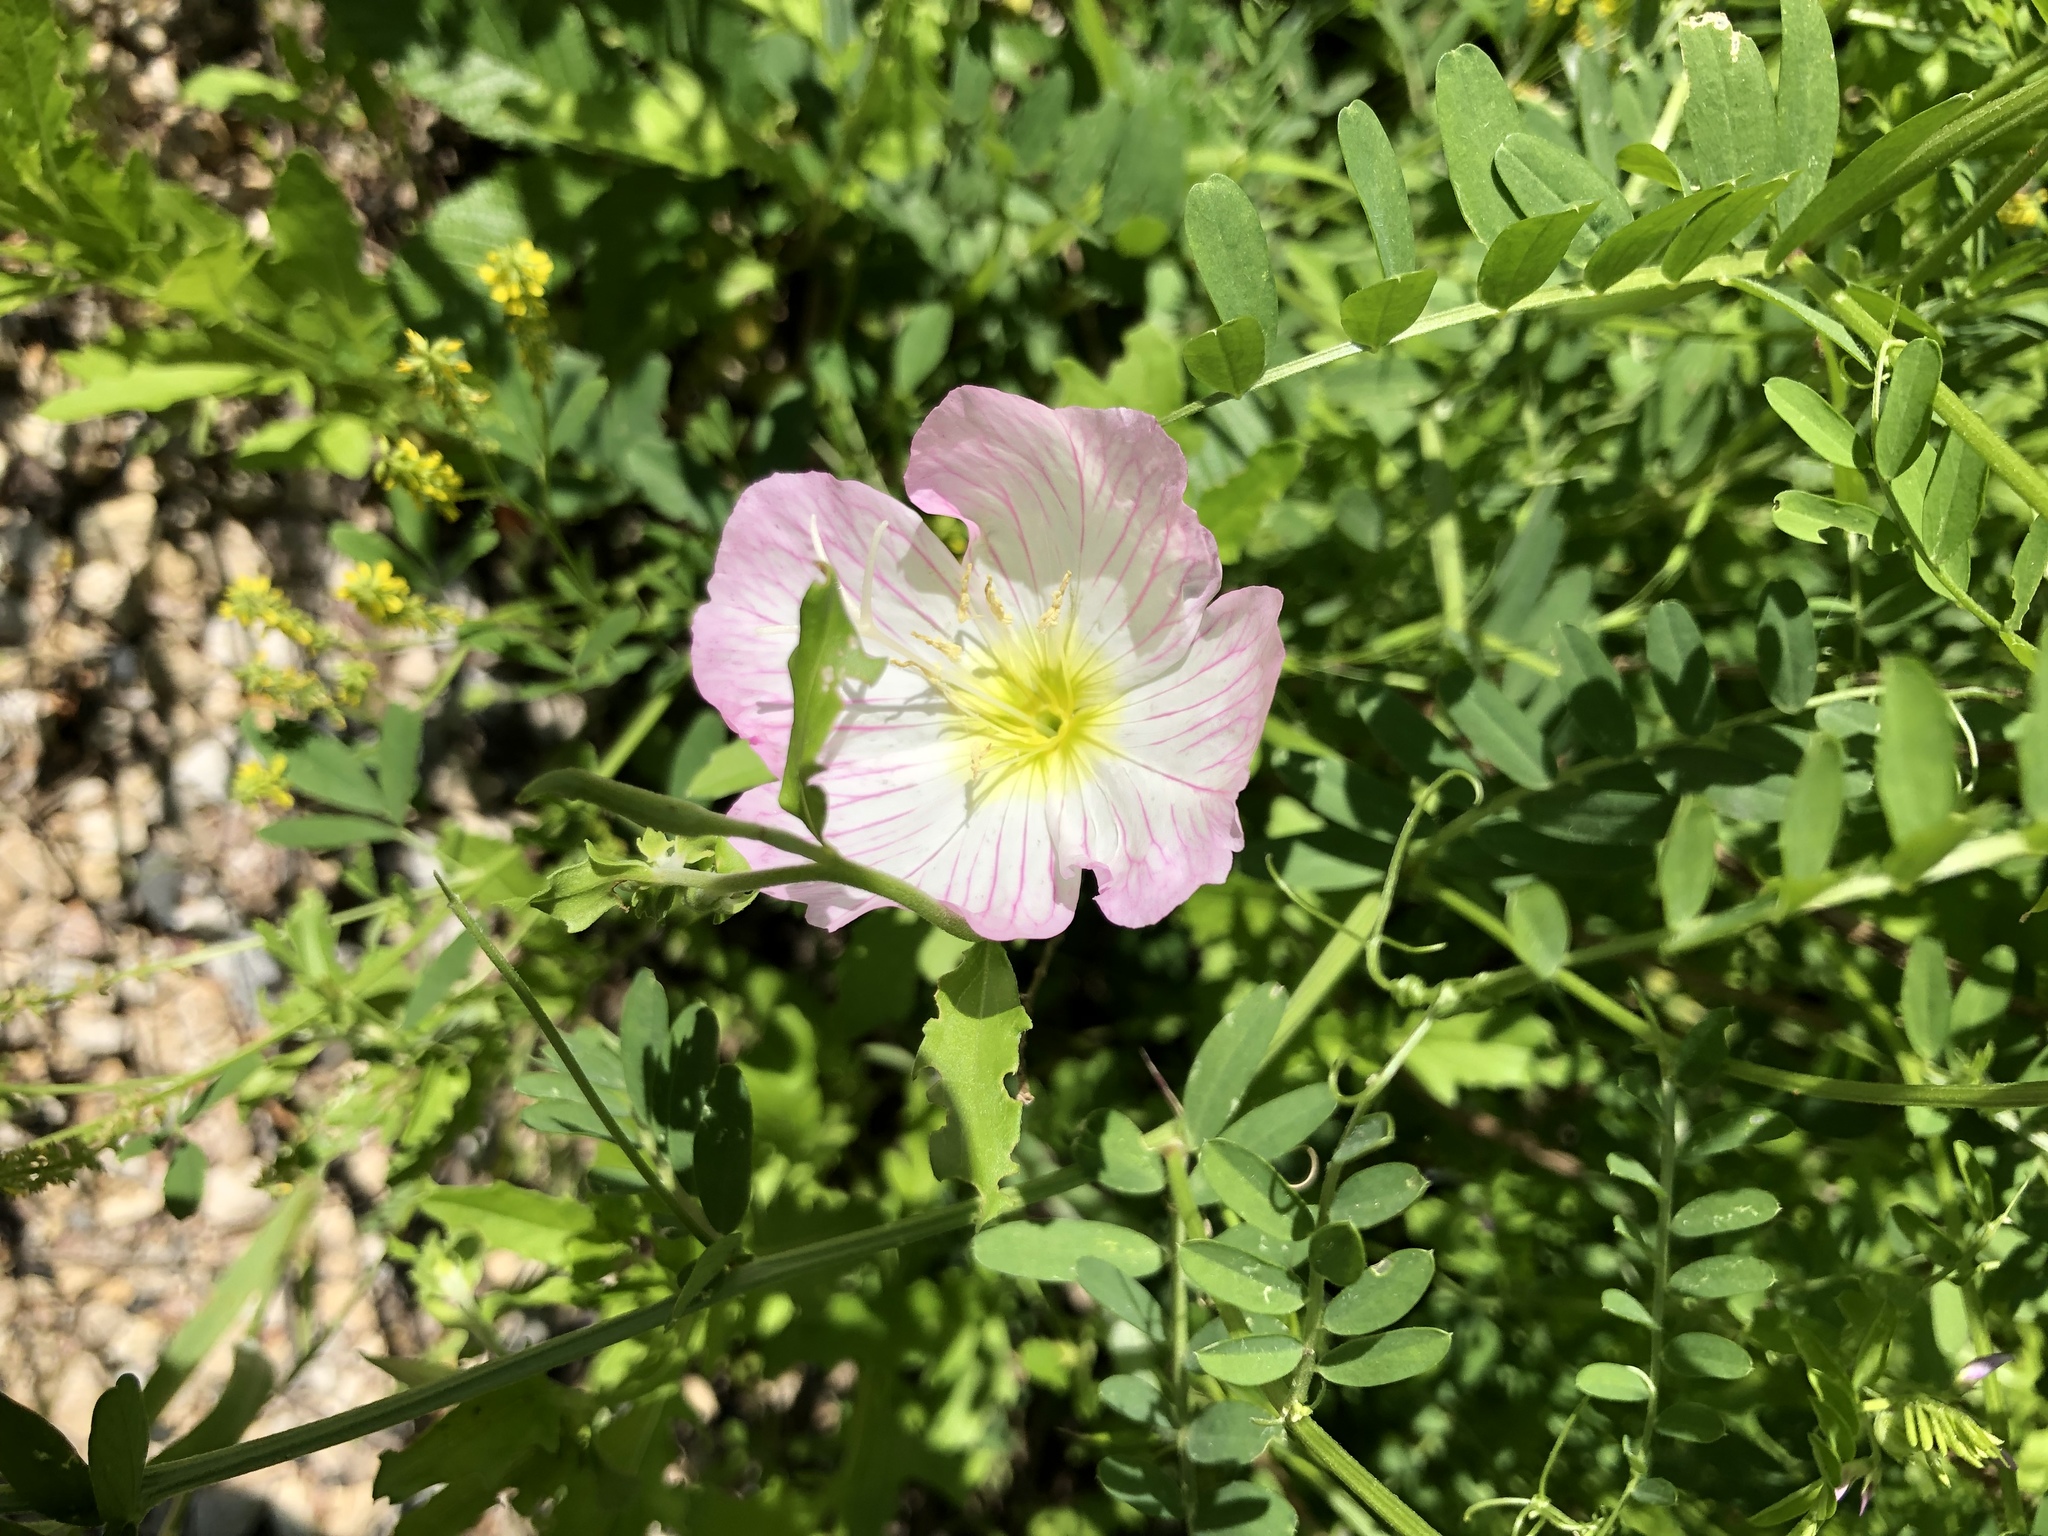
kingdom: Plantae
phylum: Tracheophyta
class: Magnoliopsida
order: Myrtales
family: Onagraceae
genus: Oenothera
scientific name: Oenothera speciosa
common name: White evening-primrose
